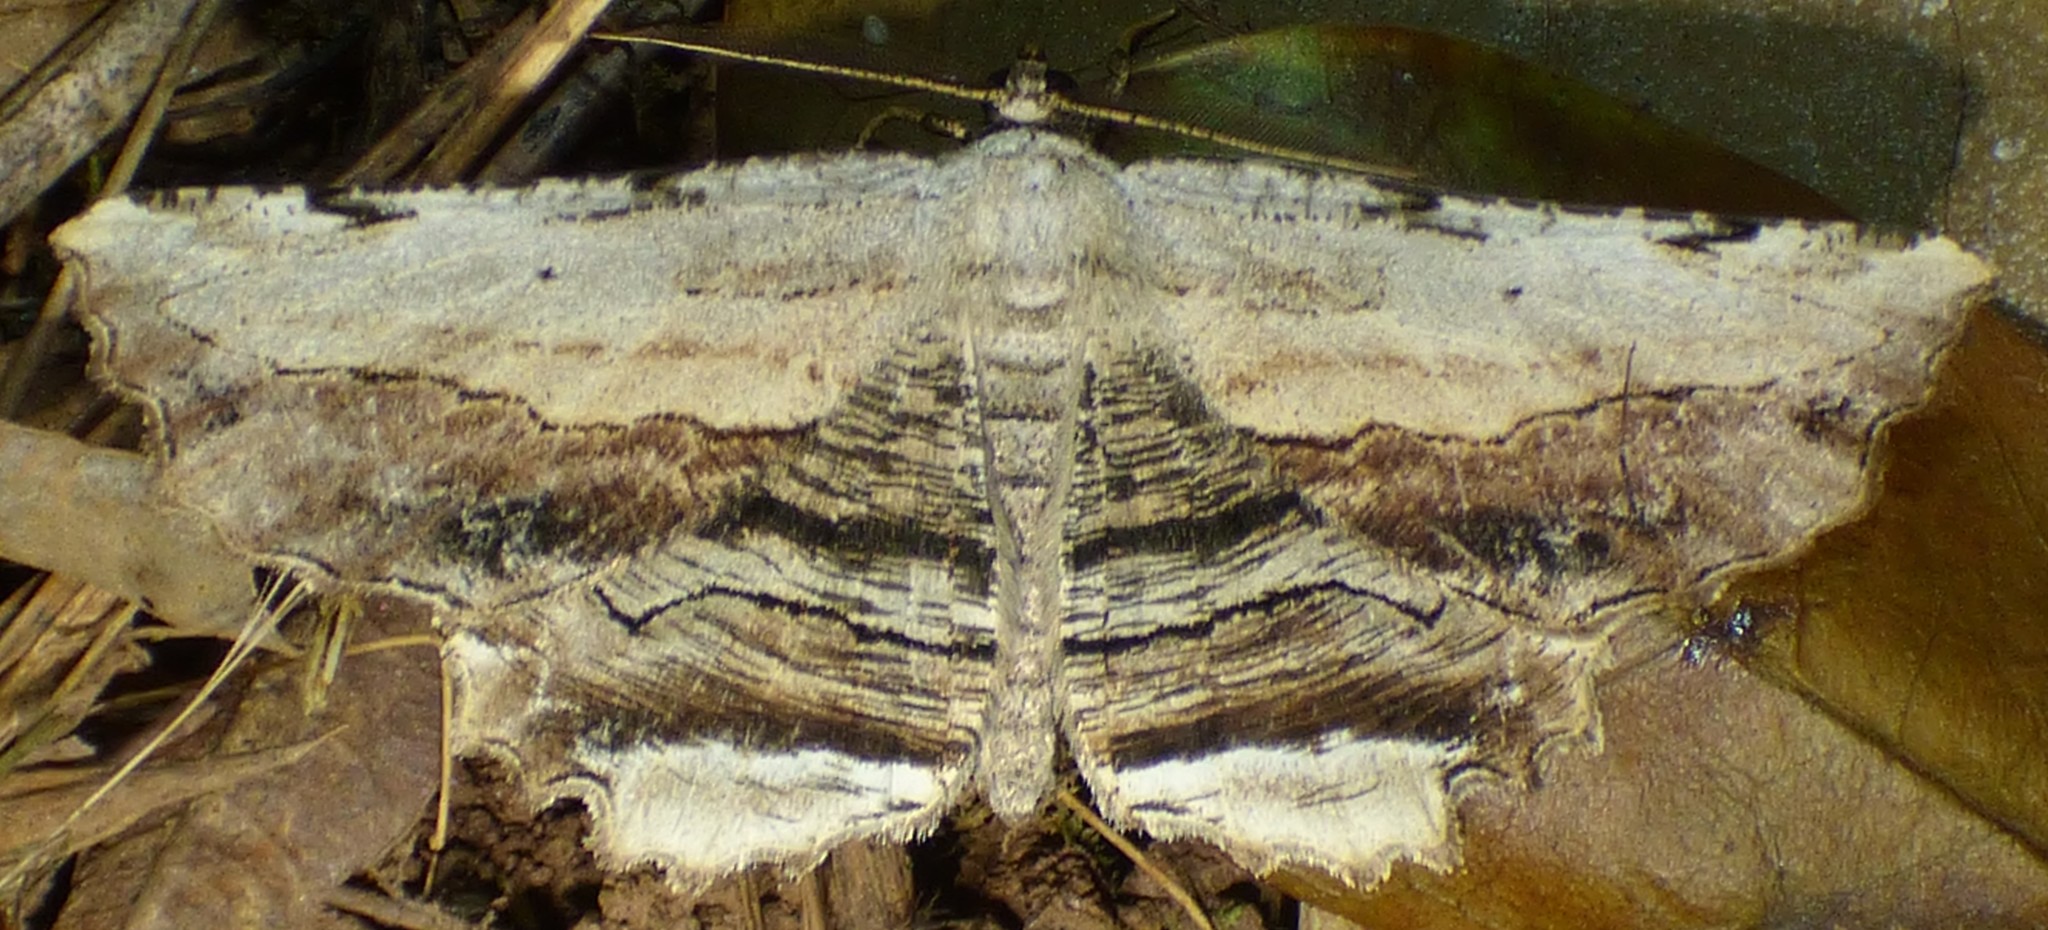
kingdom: Animalia
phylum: Arthropoda
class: Insecta
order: Lepidoptera
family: Geometridae
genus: Lytrosis
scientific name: Lytrosis unitaria
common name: Common lytrosis
